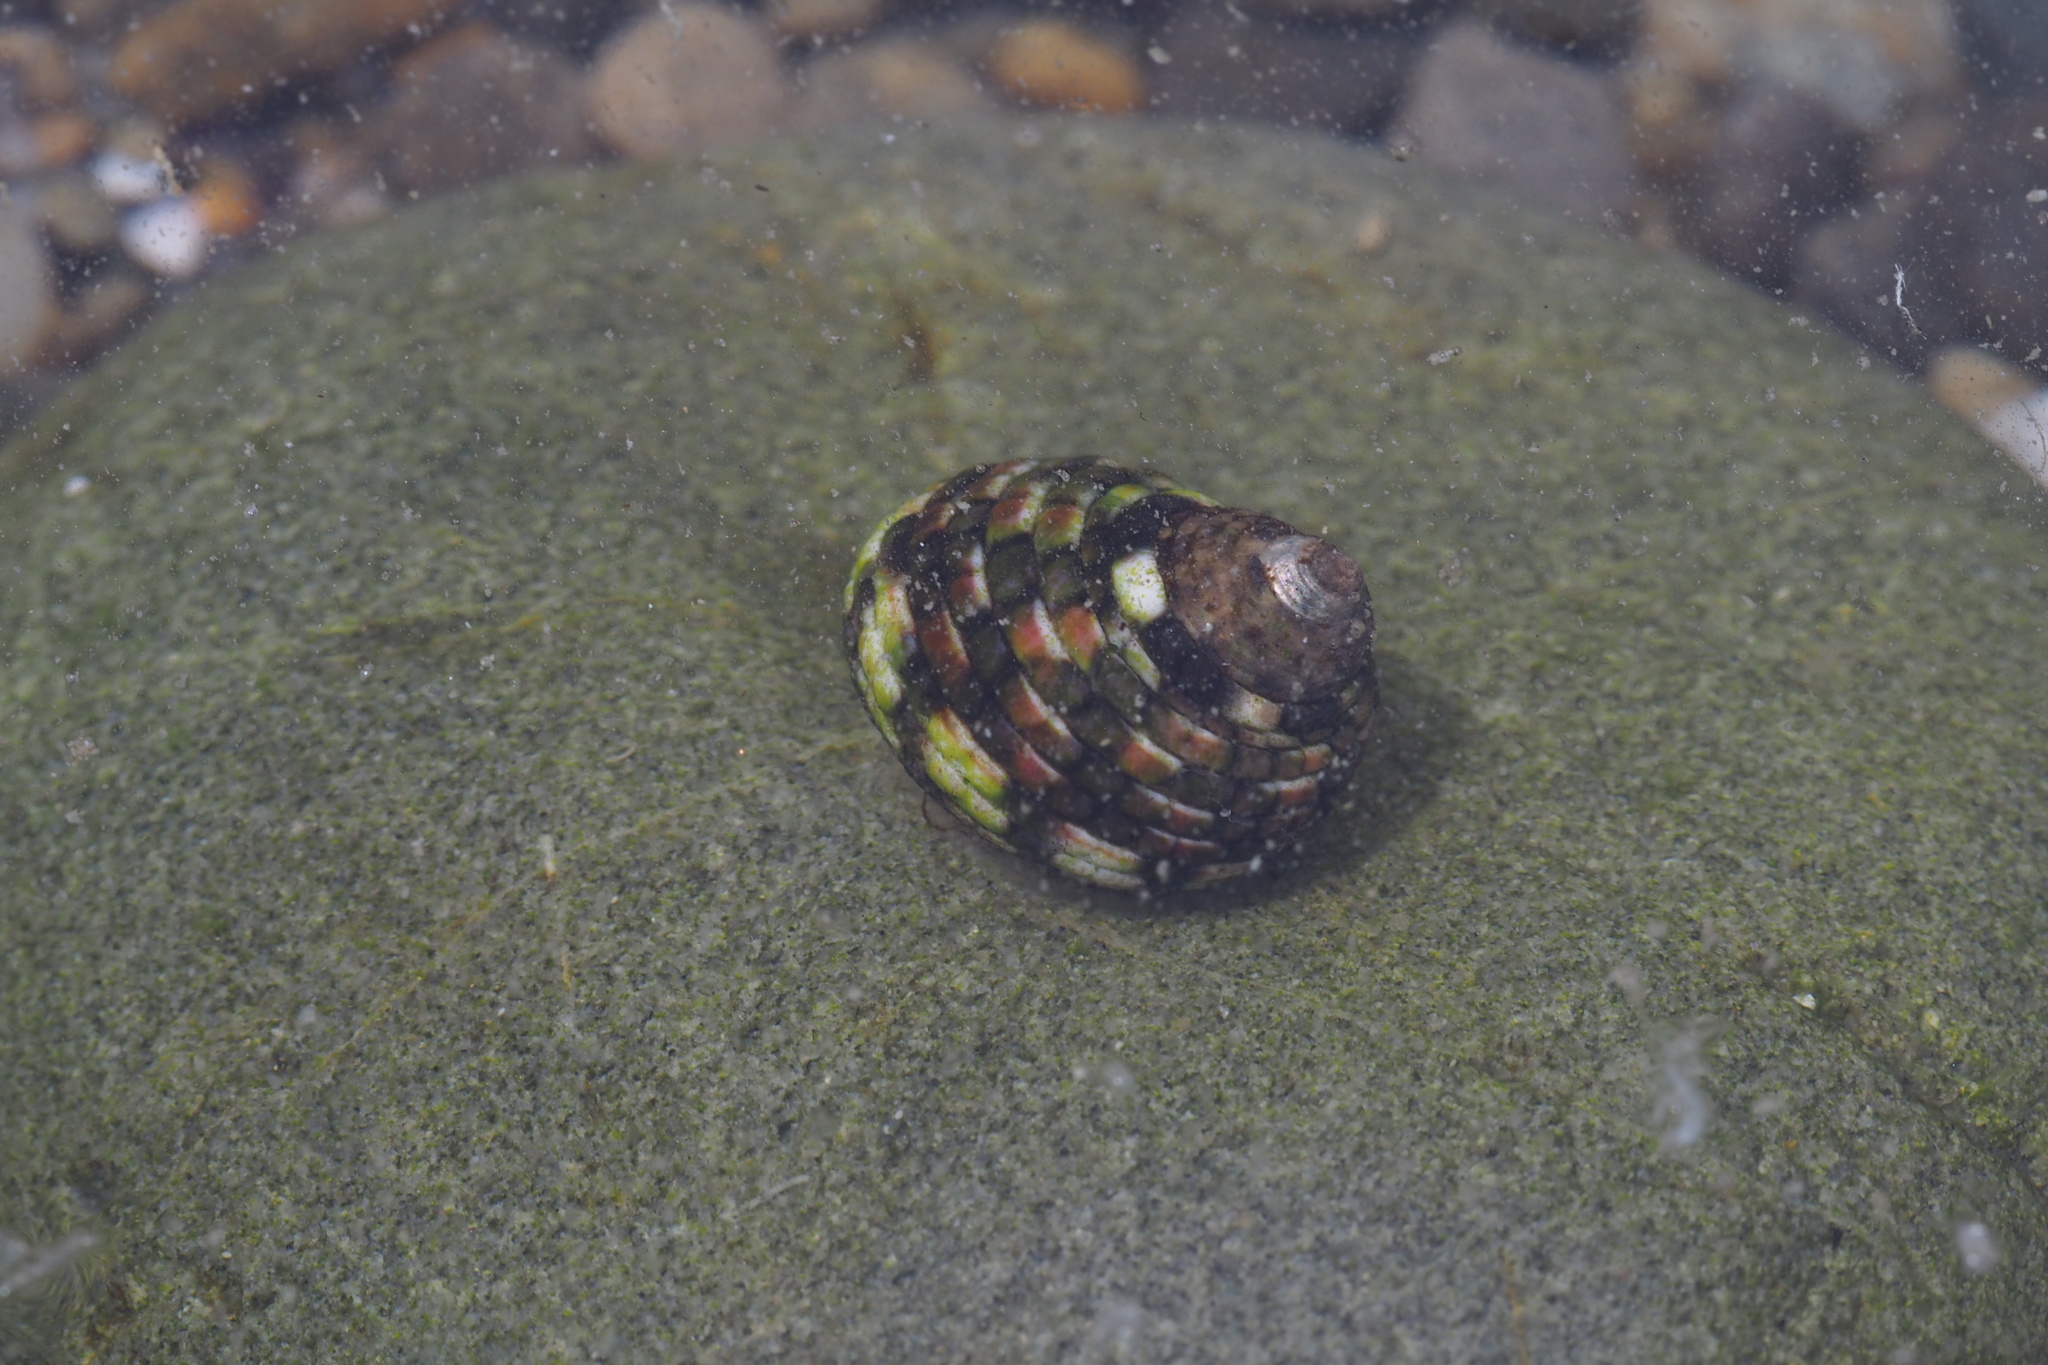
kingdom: Animalia
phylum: Mollusca
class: Gastropoda
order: Trochida
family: Trochidae
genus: Monodonta
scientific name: Monodonta confusa
